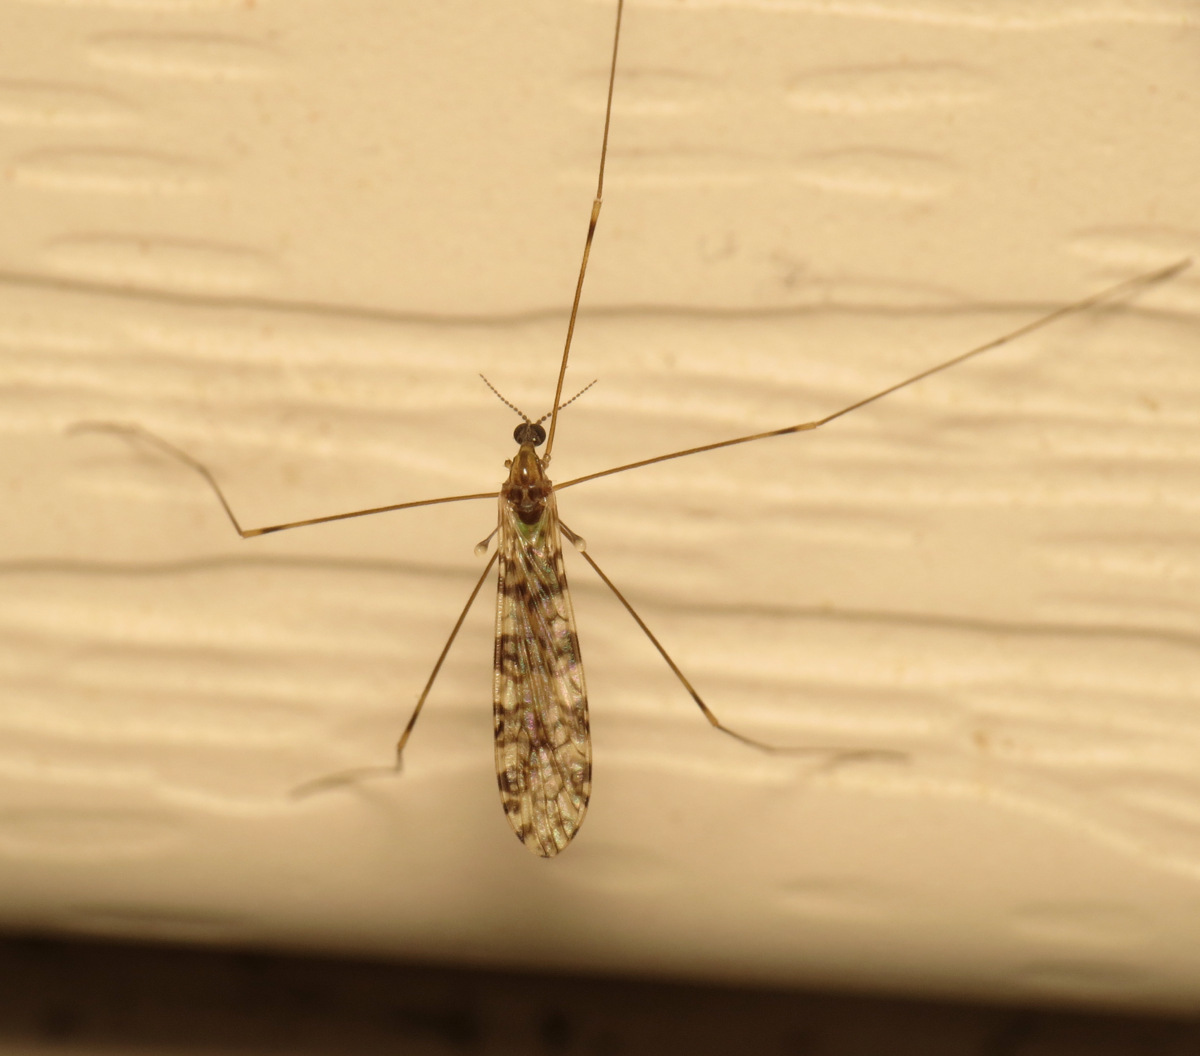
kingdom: Animalia
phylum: Arthropoda
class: Insecta
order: Diptera
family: Limoniidae
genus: Limonia
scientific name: Limonia annulata
